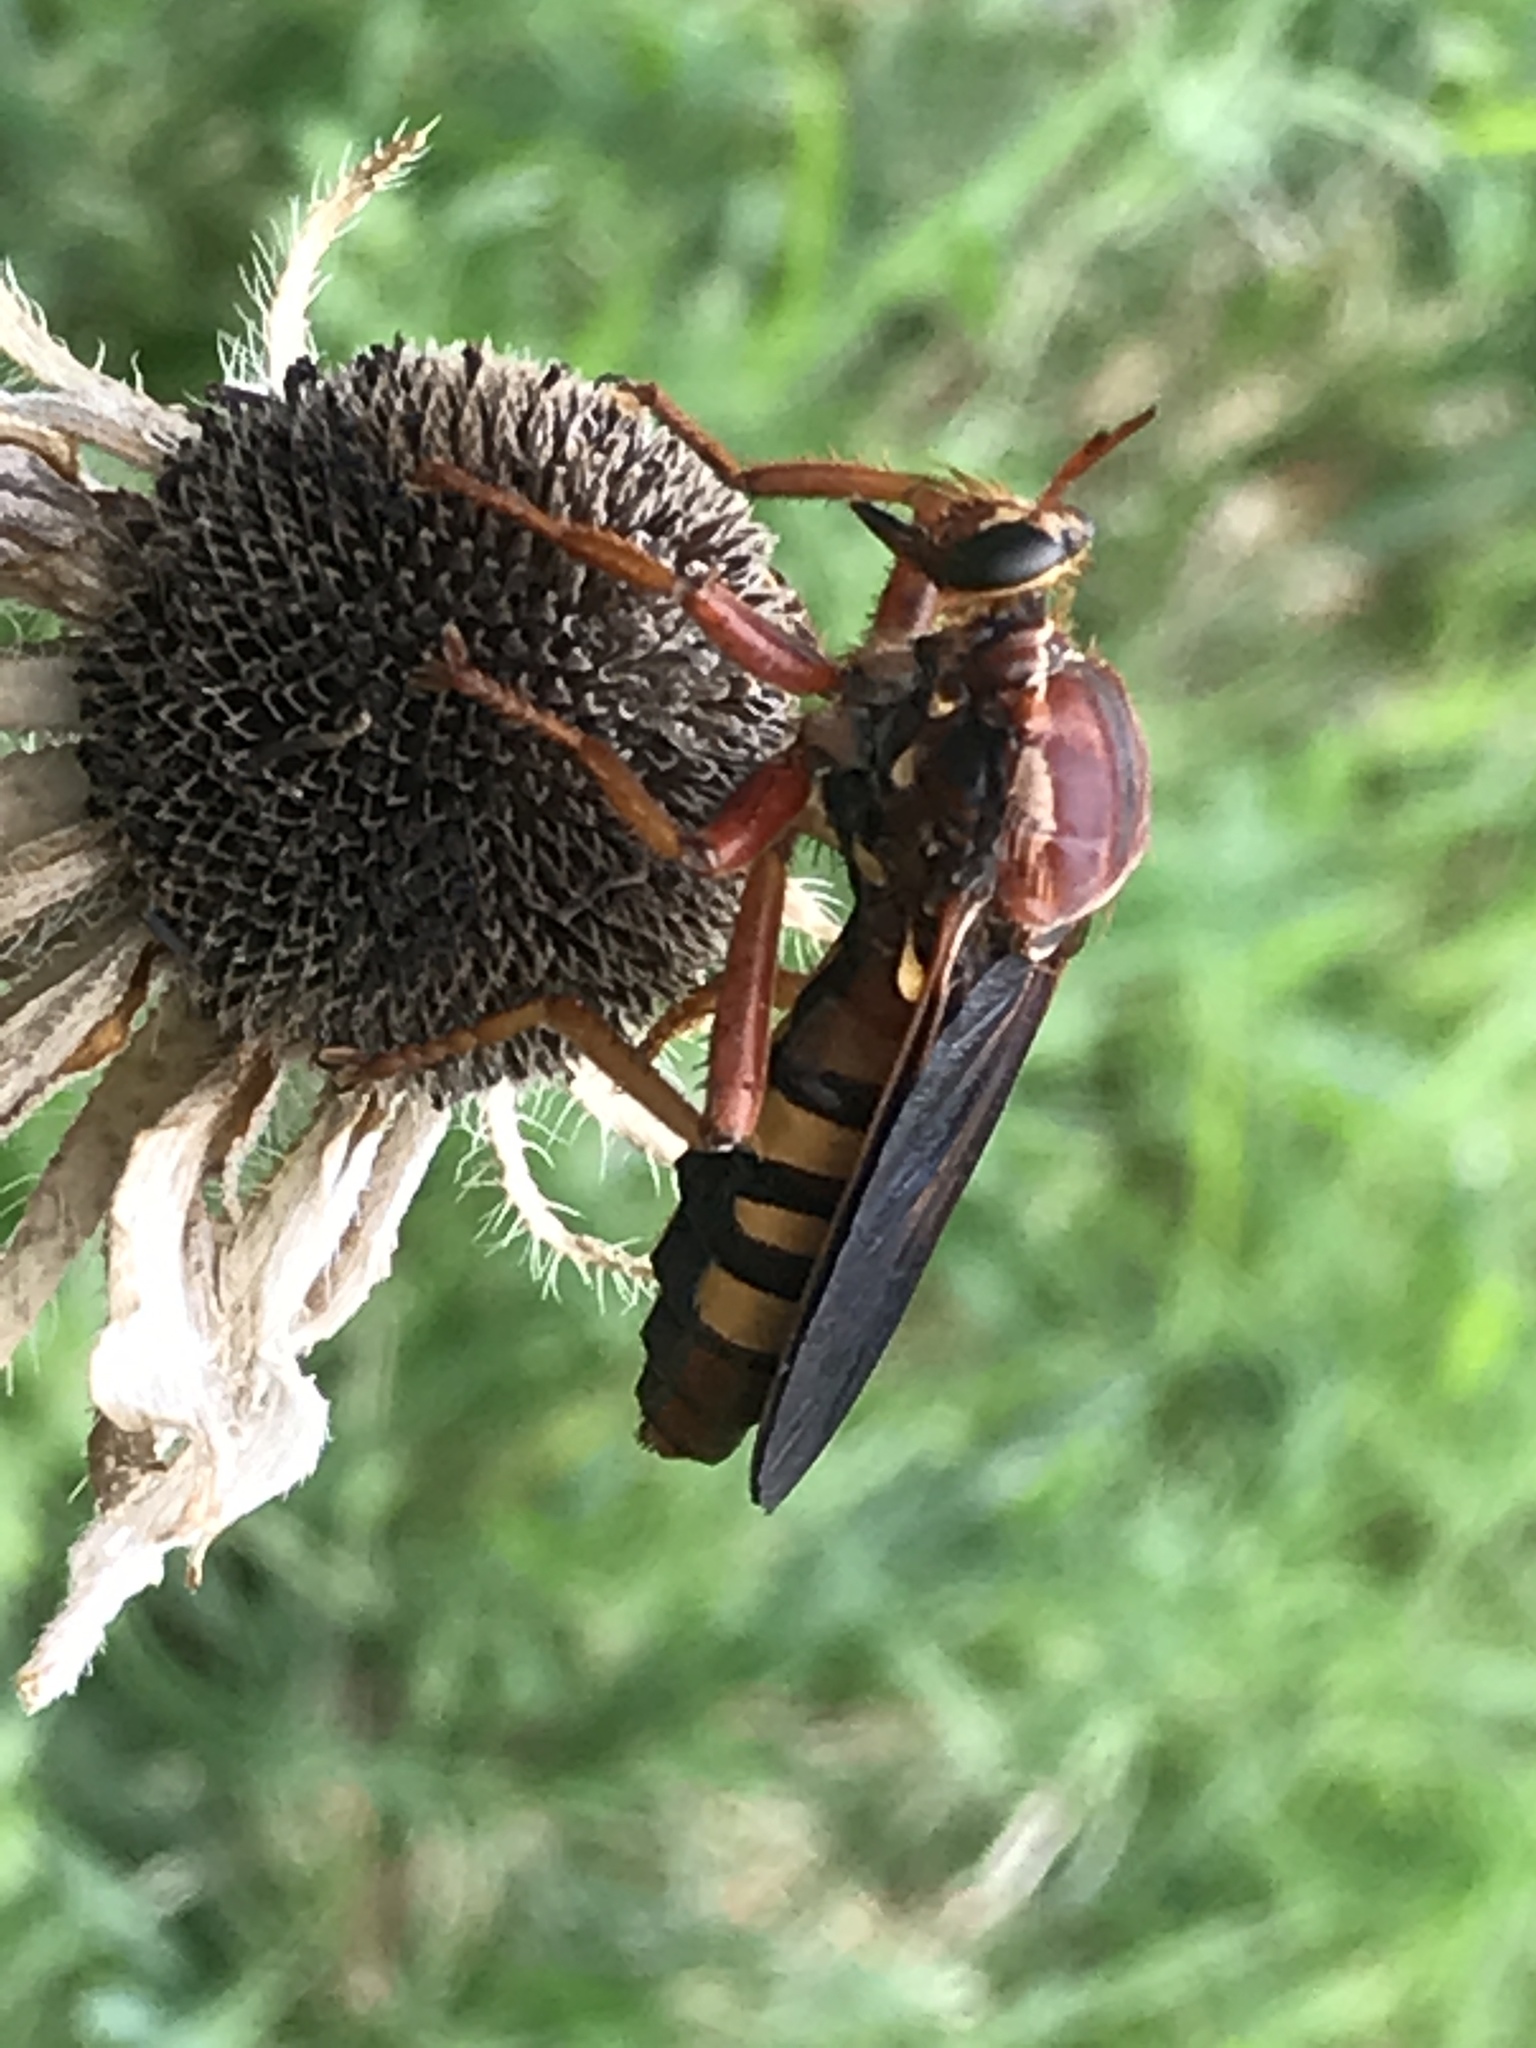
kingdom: Animalia
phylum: Arthropoda
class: Insecta
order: Diptera
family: Asilidae
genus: Prolepsis
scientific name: Prolepsis tristis
